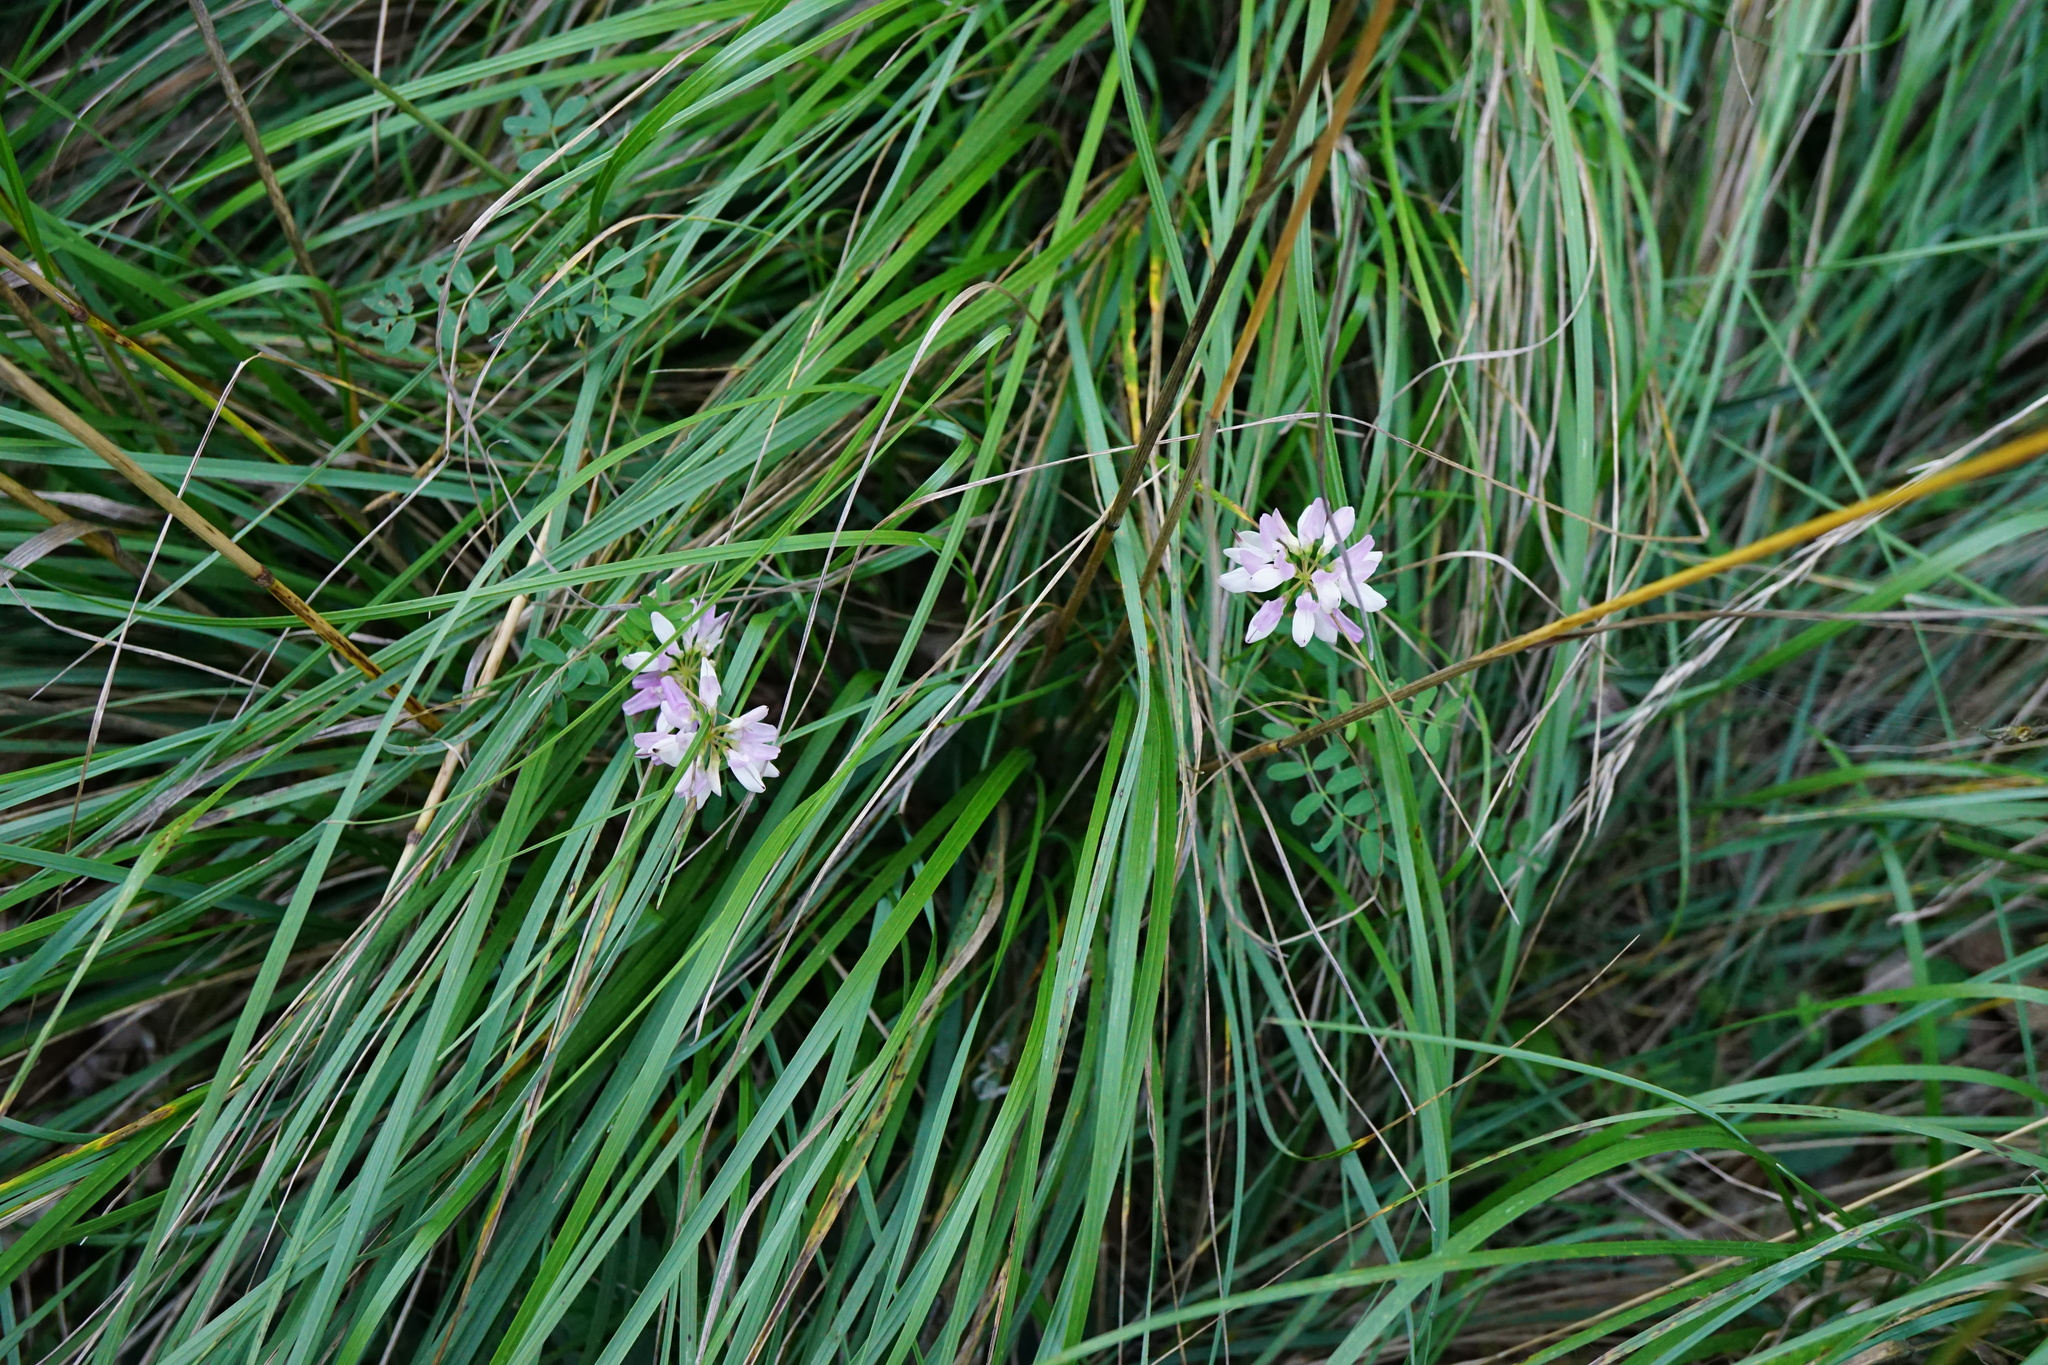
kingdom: Plantae
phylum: Tracheophyta
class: Magnoliopsida
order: Fabales
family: Fabaceae
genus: Coronilla
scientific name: Coronilla varia
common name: Crownvetch
